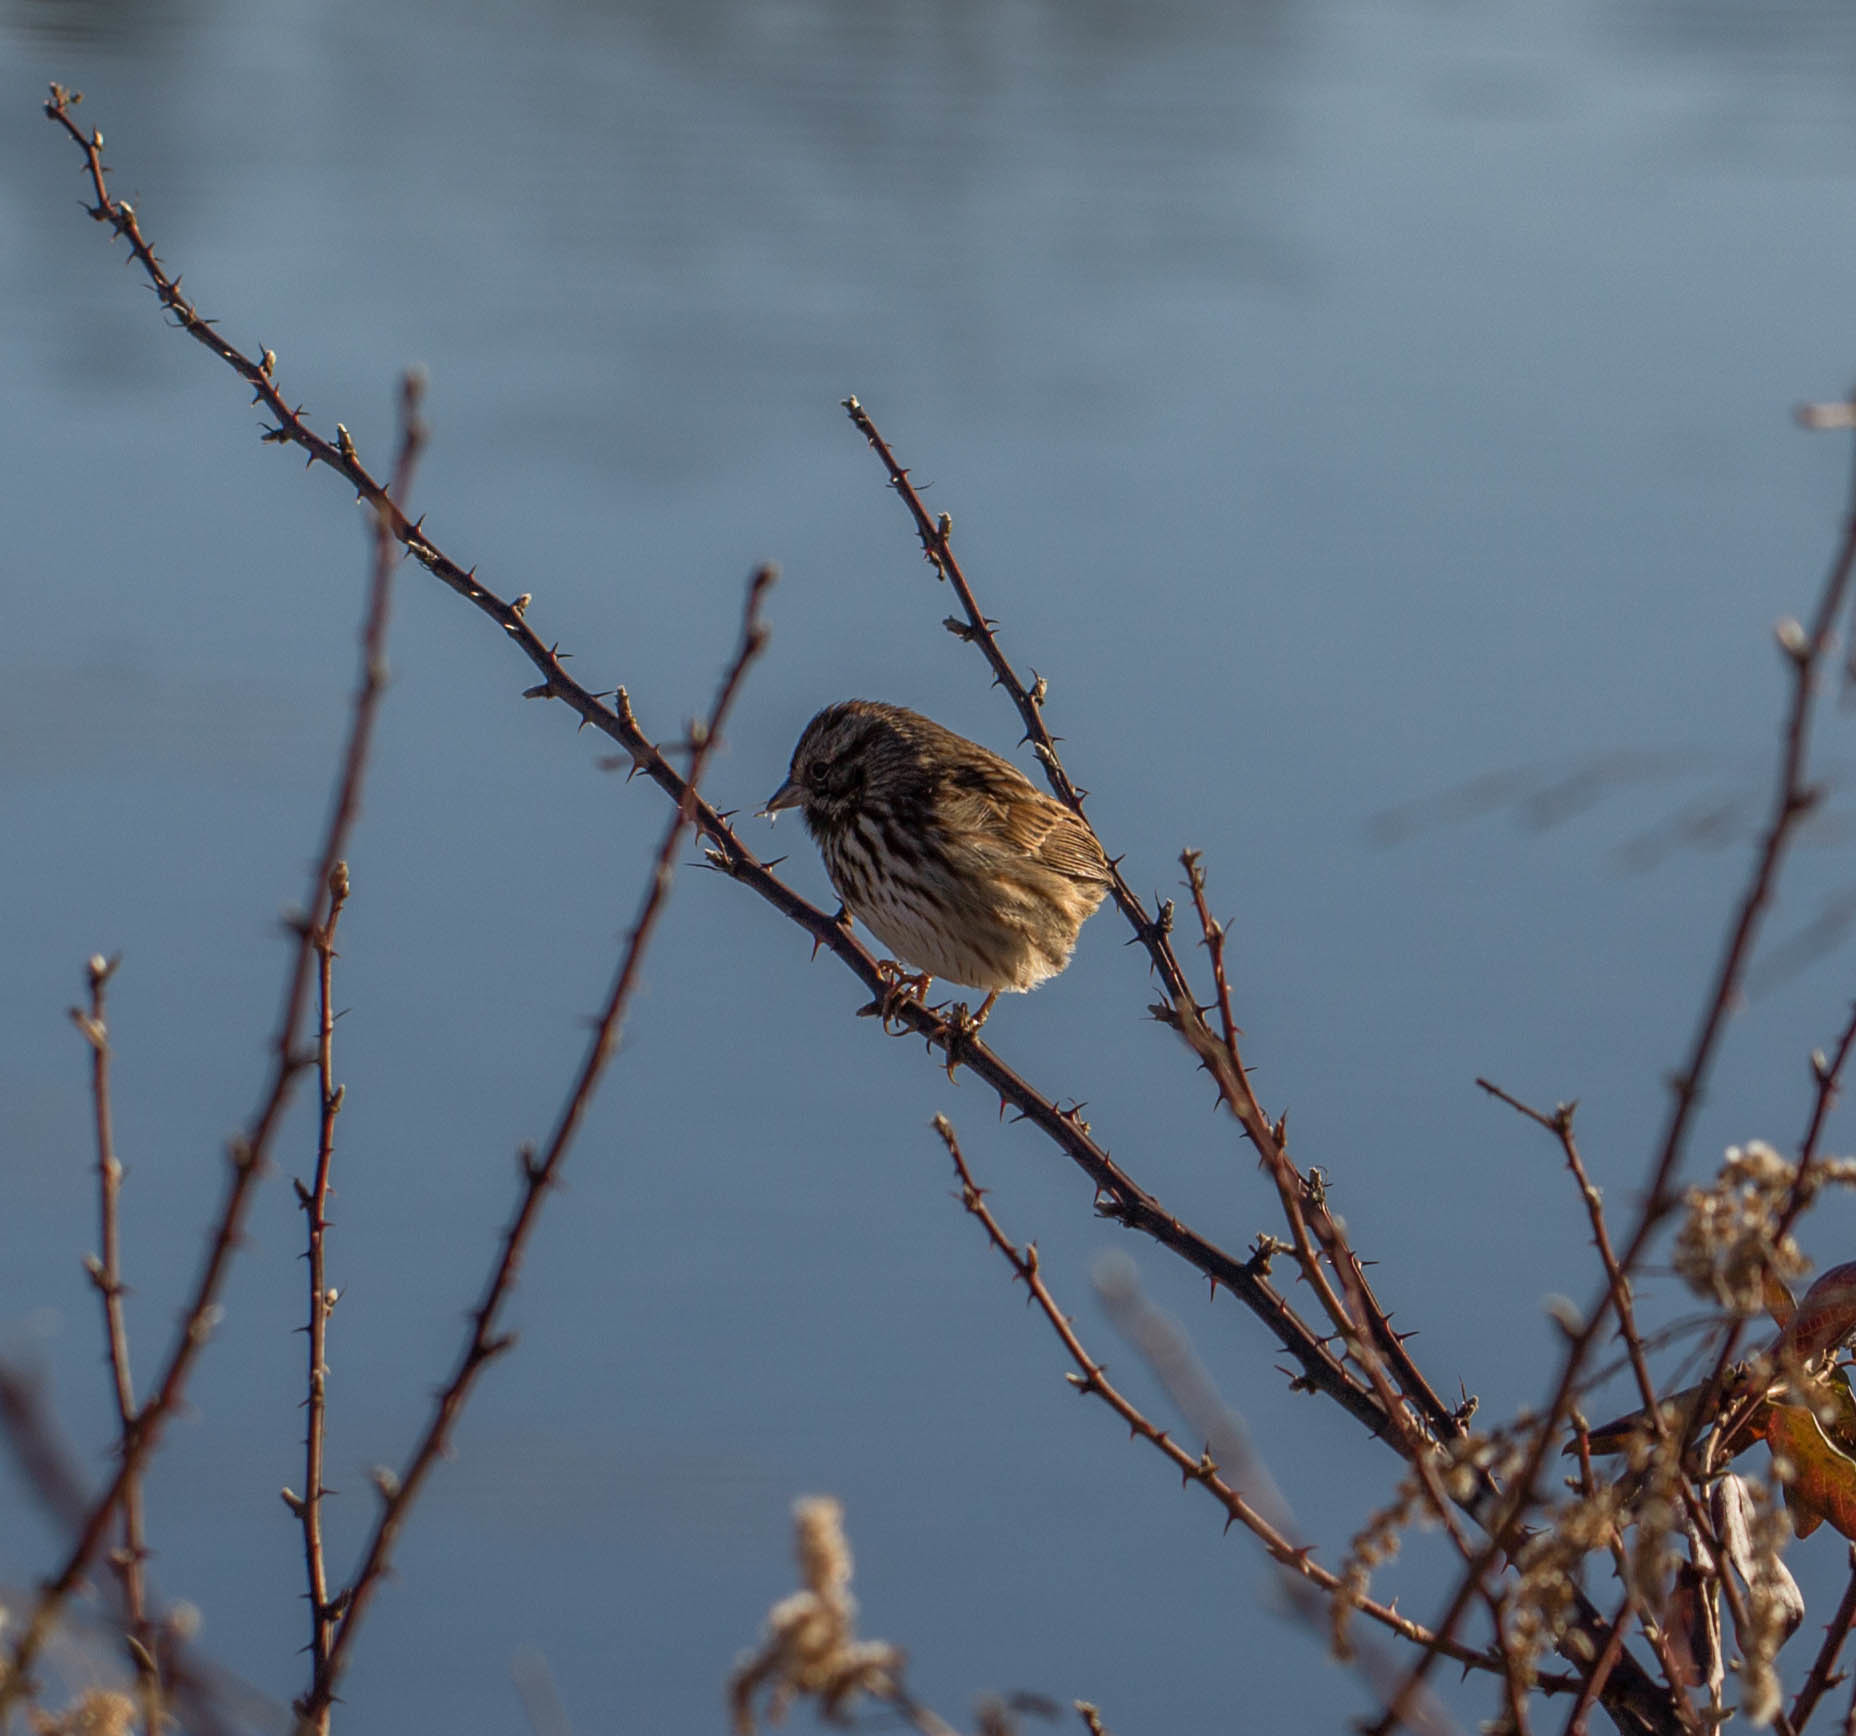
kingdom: Animalia
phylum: Chordata
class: Aves
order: Passeriformes
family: Passerellidae
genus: Melospiza
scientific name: Melospiza melodia
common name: Song sparrow
